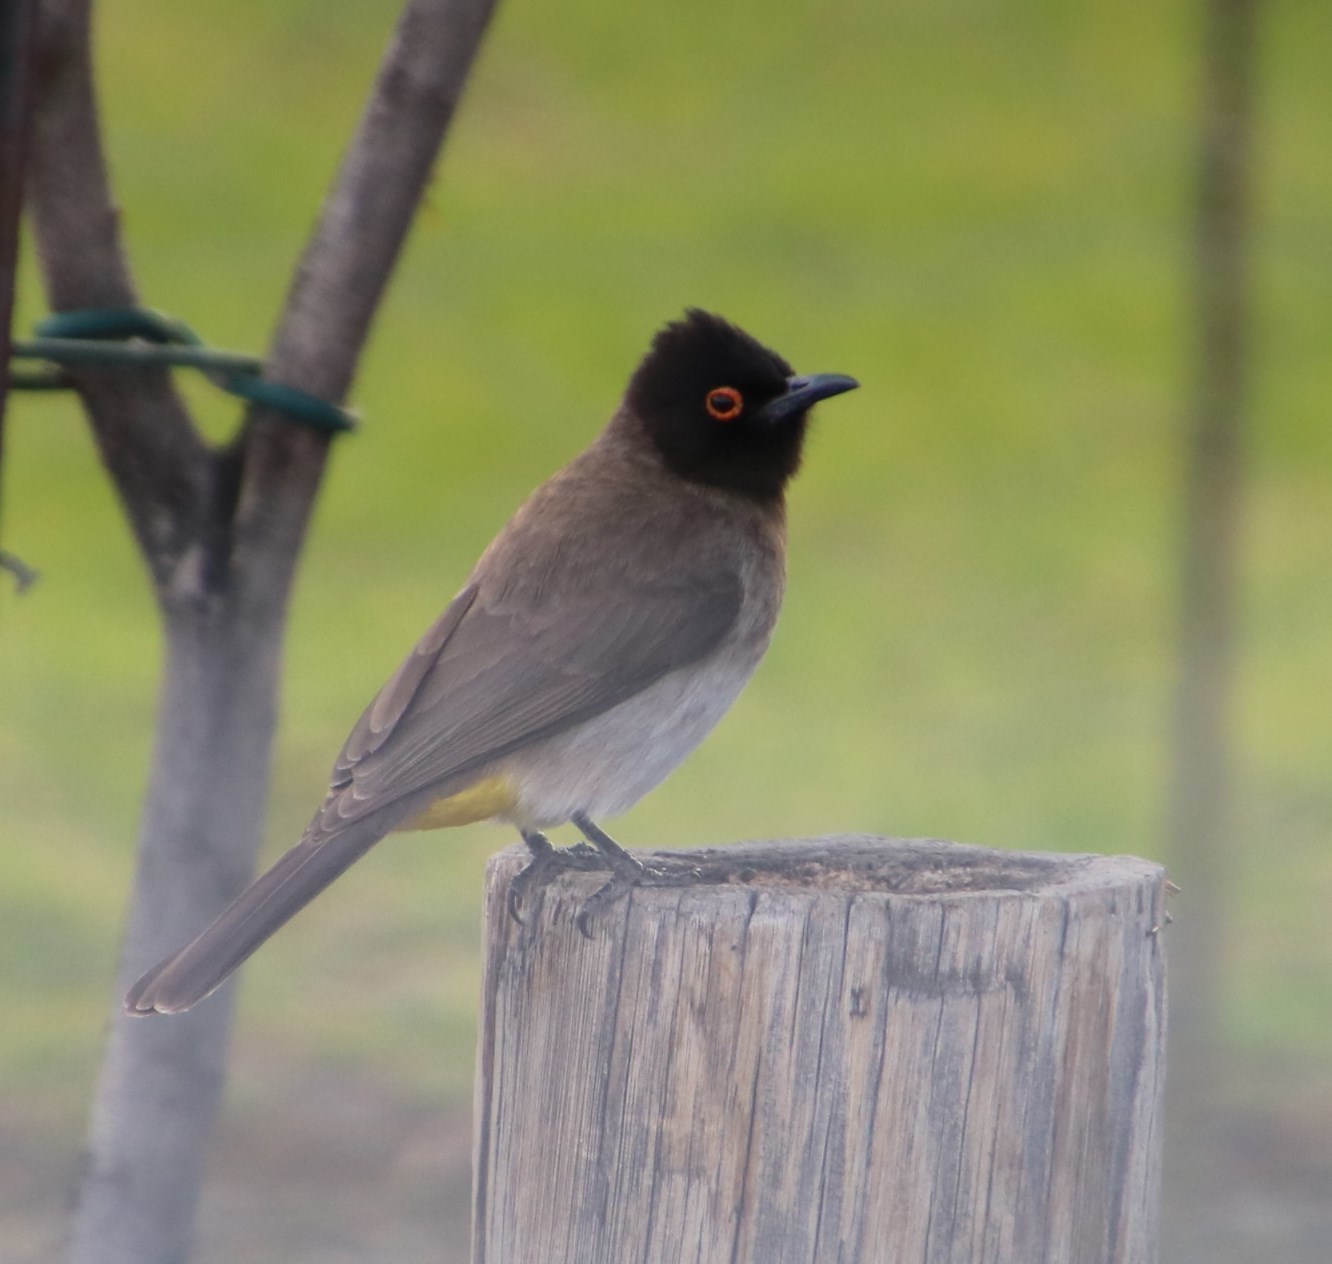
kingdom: Animalia
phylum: Chordata
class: Aves
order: Passeriformes
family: Pycnonotidae
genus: Pycnonotus
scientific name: Pycnonotus nigricans
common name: African red-eyed bulbul
